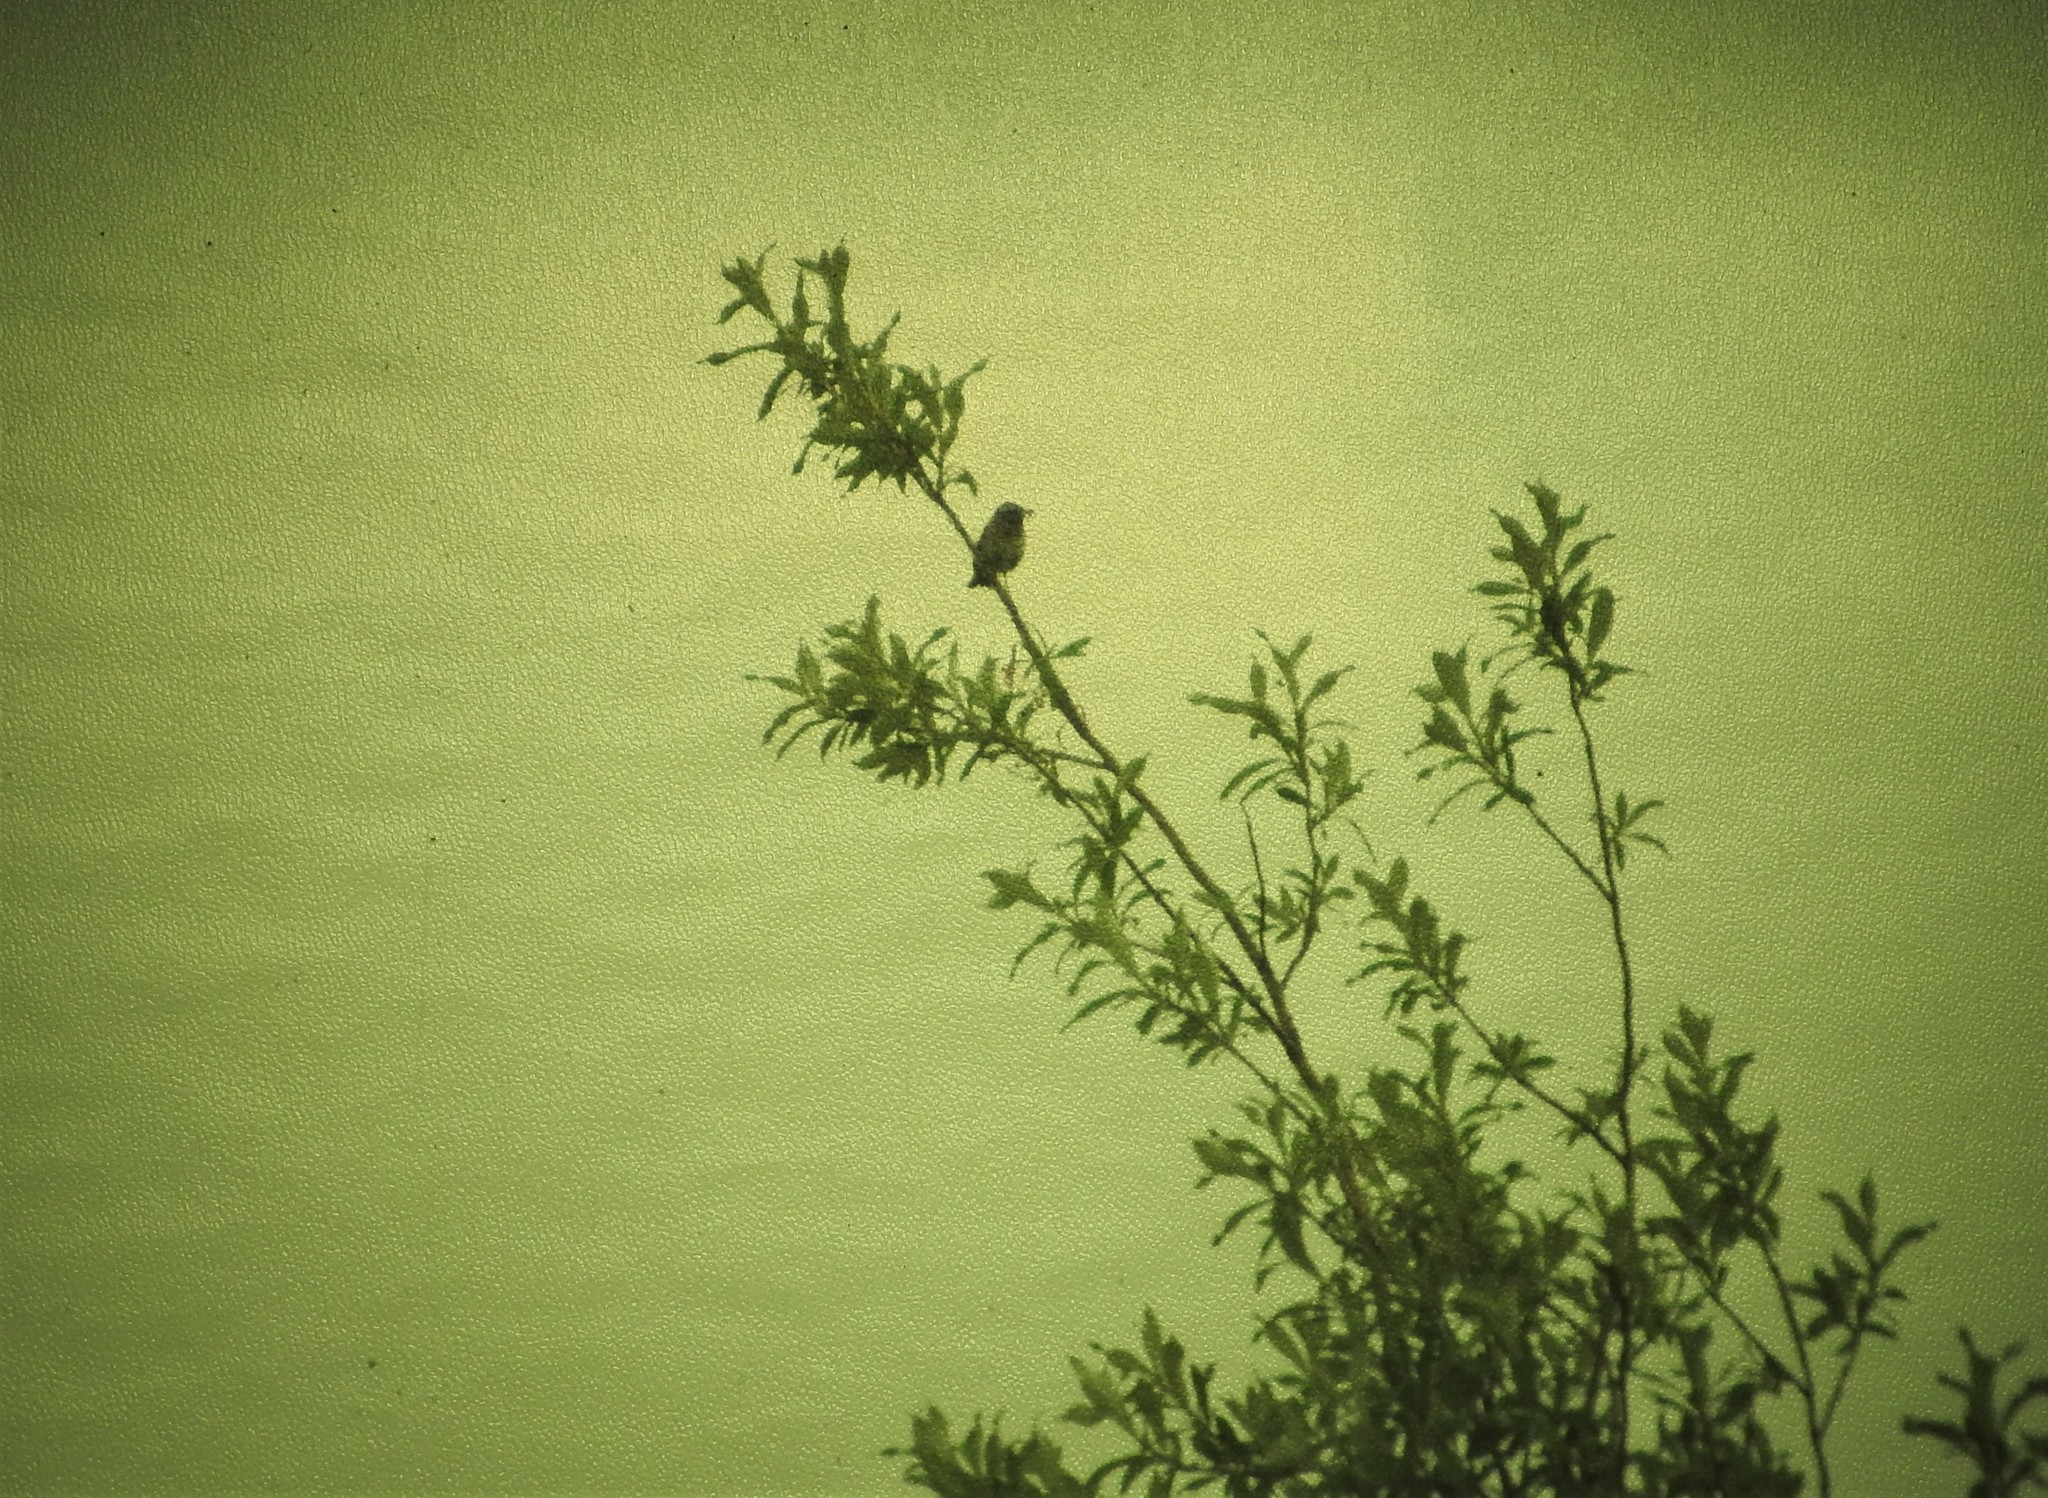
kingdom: Animalia
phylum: Chordata
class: Aves
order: Passeriformes
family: Muscicapidae
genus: Luscinia
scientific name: Luscinia svecica
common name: Bluethroat
